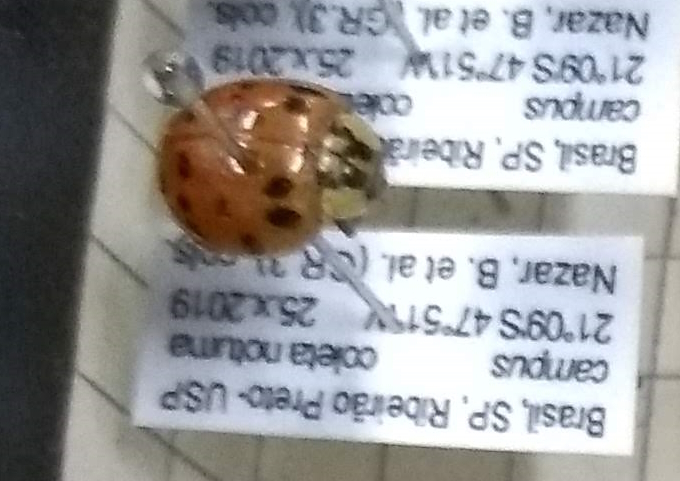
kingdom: Animalia
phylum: Arthropoda
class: Insecta
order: Coleoptera
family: Coccinellidae
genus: Harmonia
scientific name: Harmonia axyridis
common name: Harlequin ladybird
